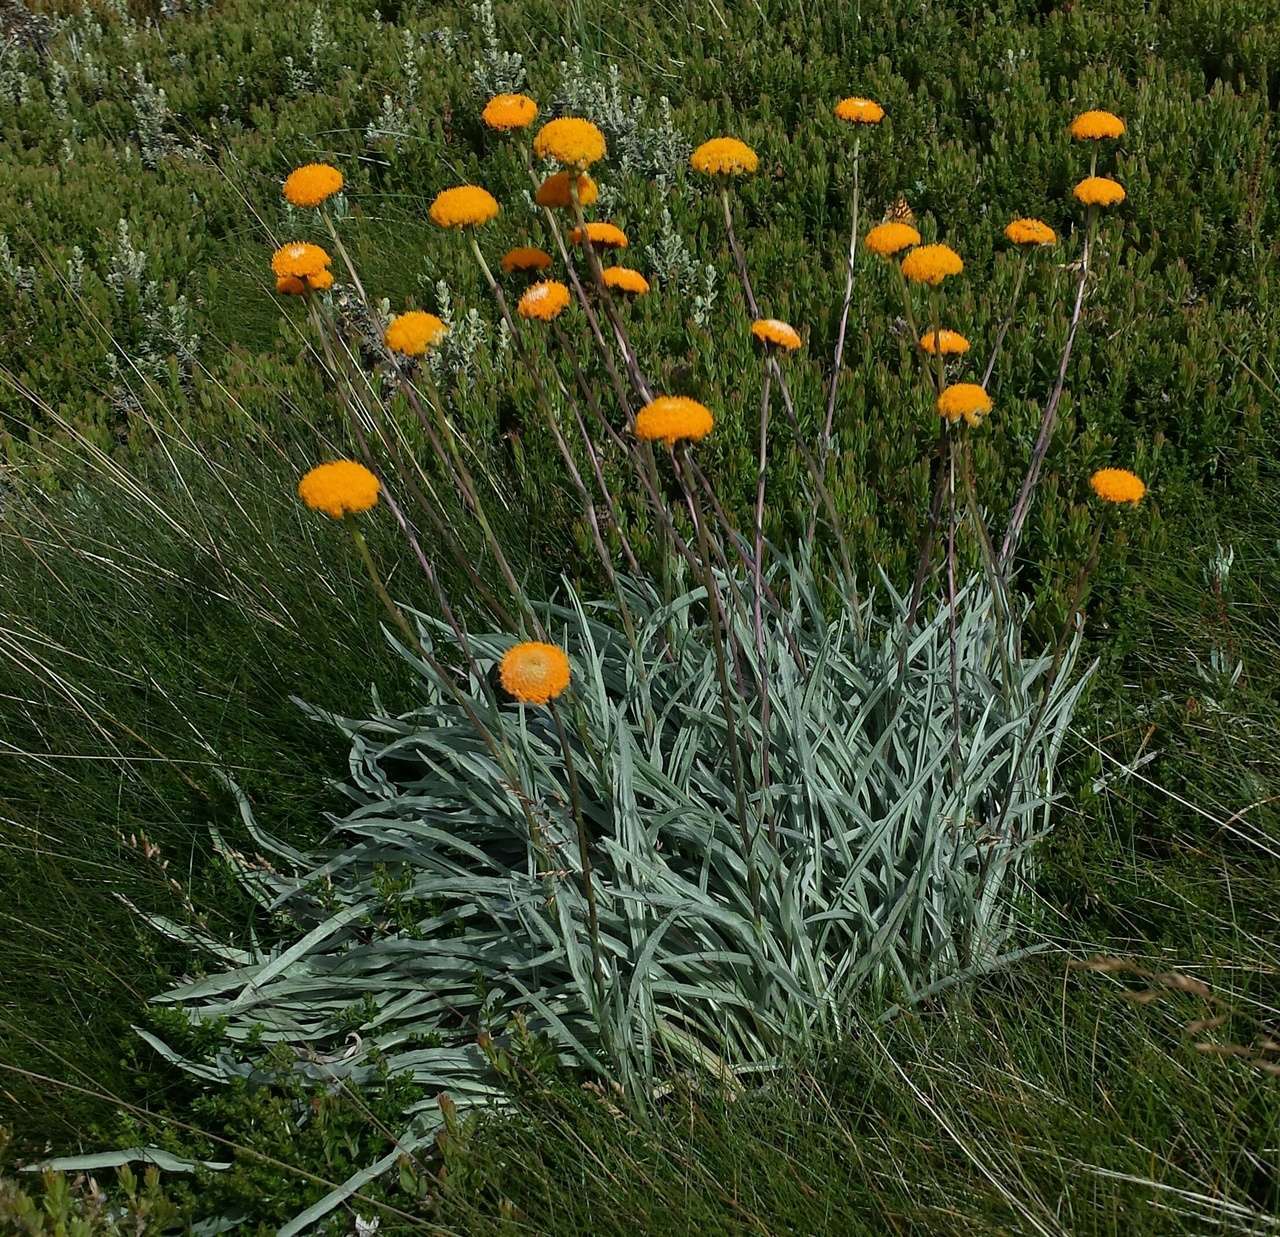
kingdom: Animalia
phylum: Arthropoda
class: Insecta
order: Lepidoptera
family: Geometridae
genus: Chrysolarentia
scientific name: Chrysolarentia polycarpa
